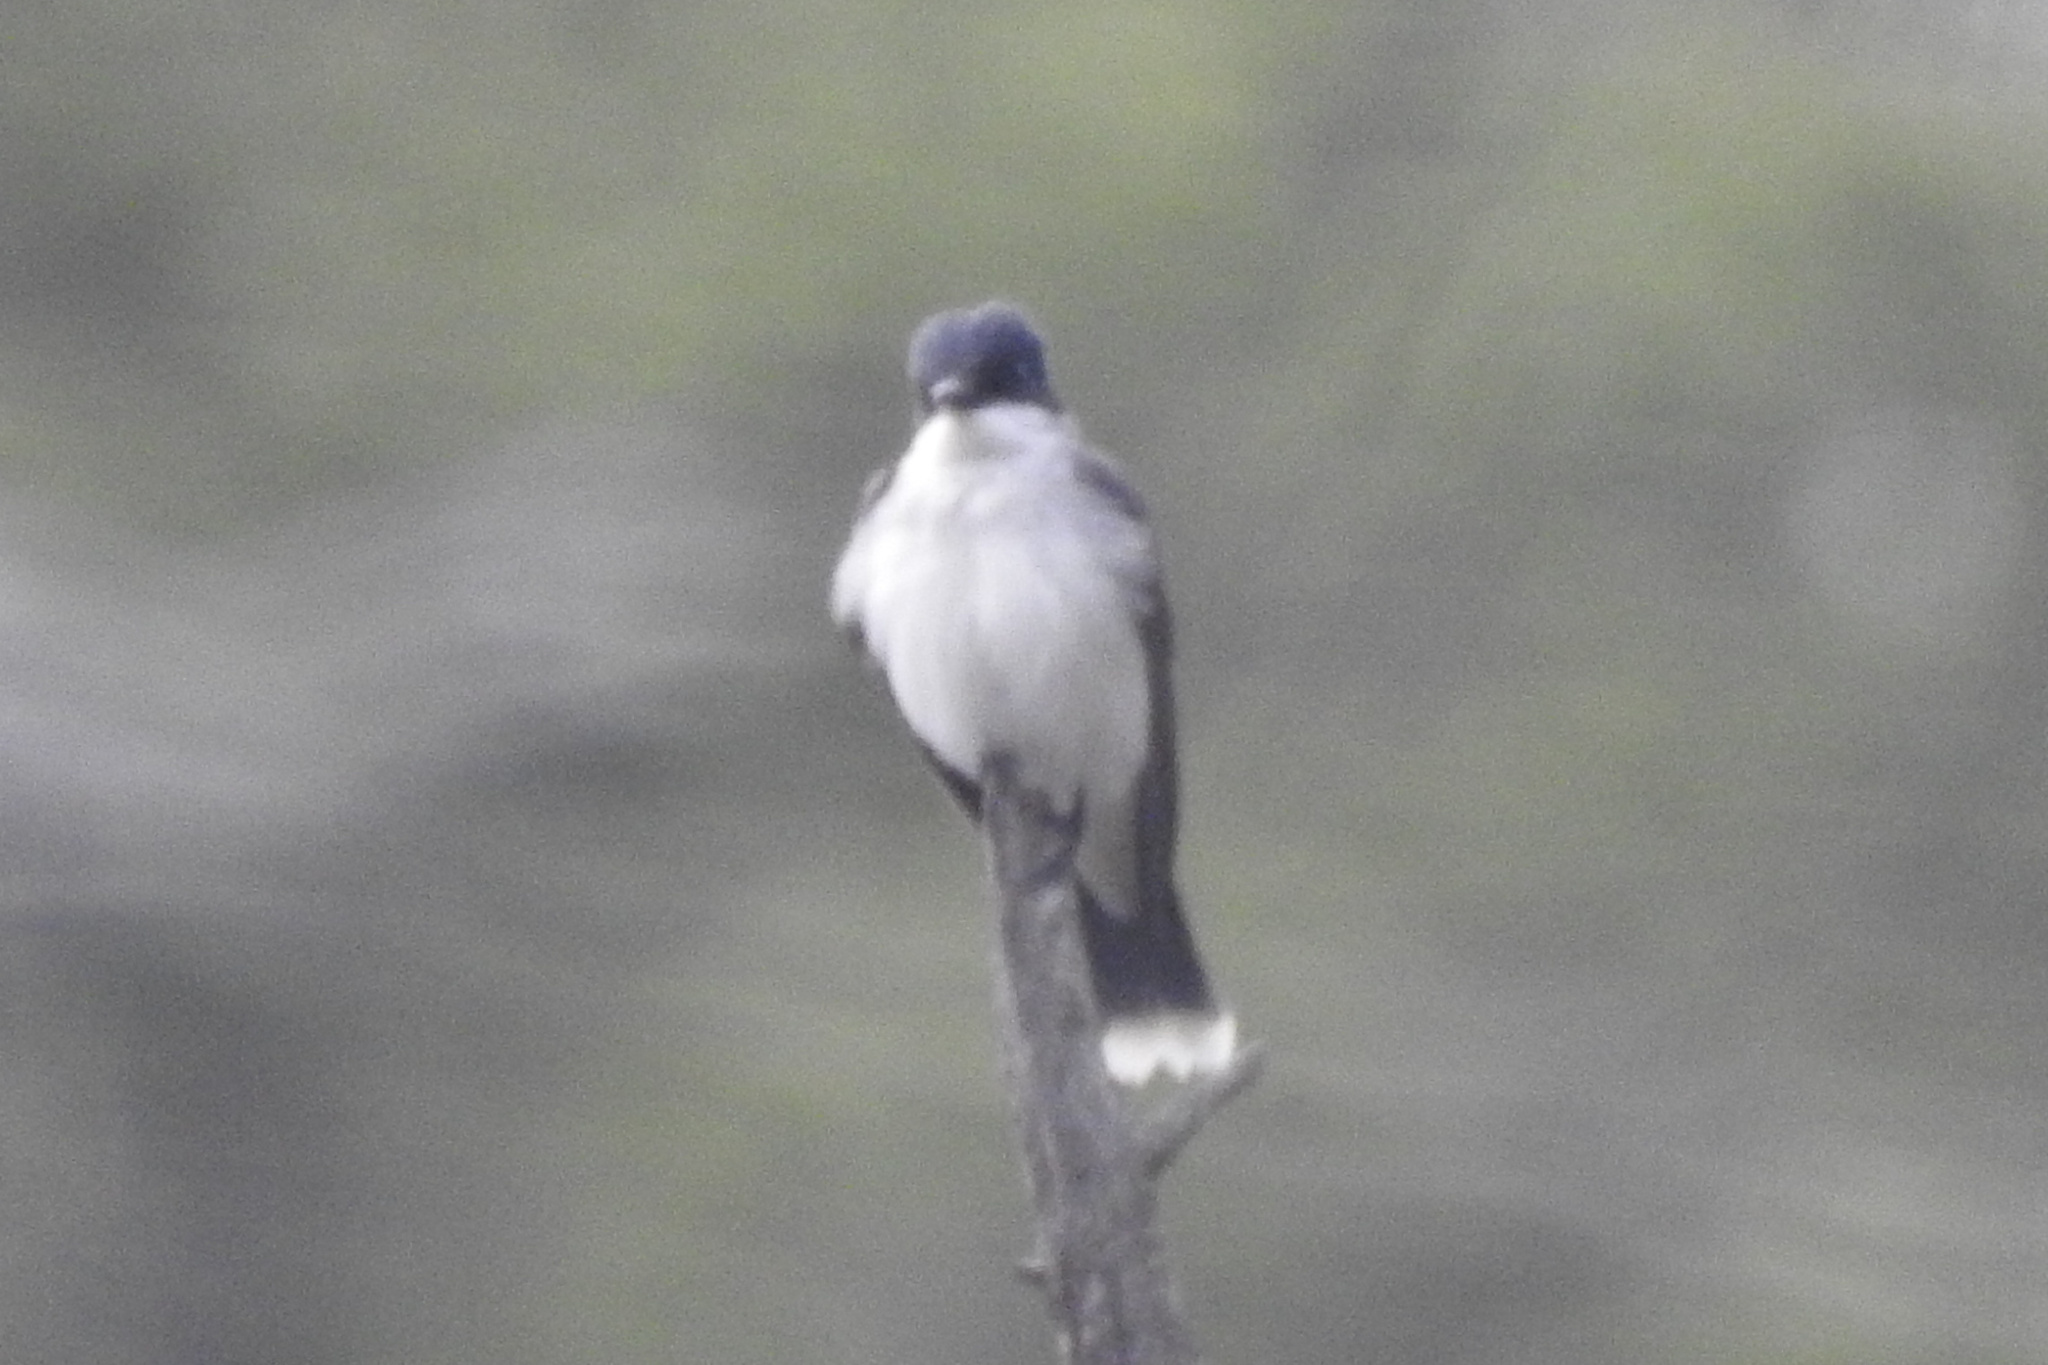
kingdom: Animalia
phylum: Chordata
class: Aves
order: Passeriformes
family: Tyrannidae
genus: Tyrannus
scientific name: Tyrannus tyrannus
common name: Eastern kingbird
